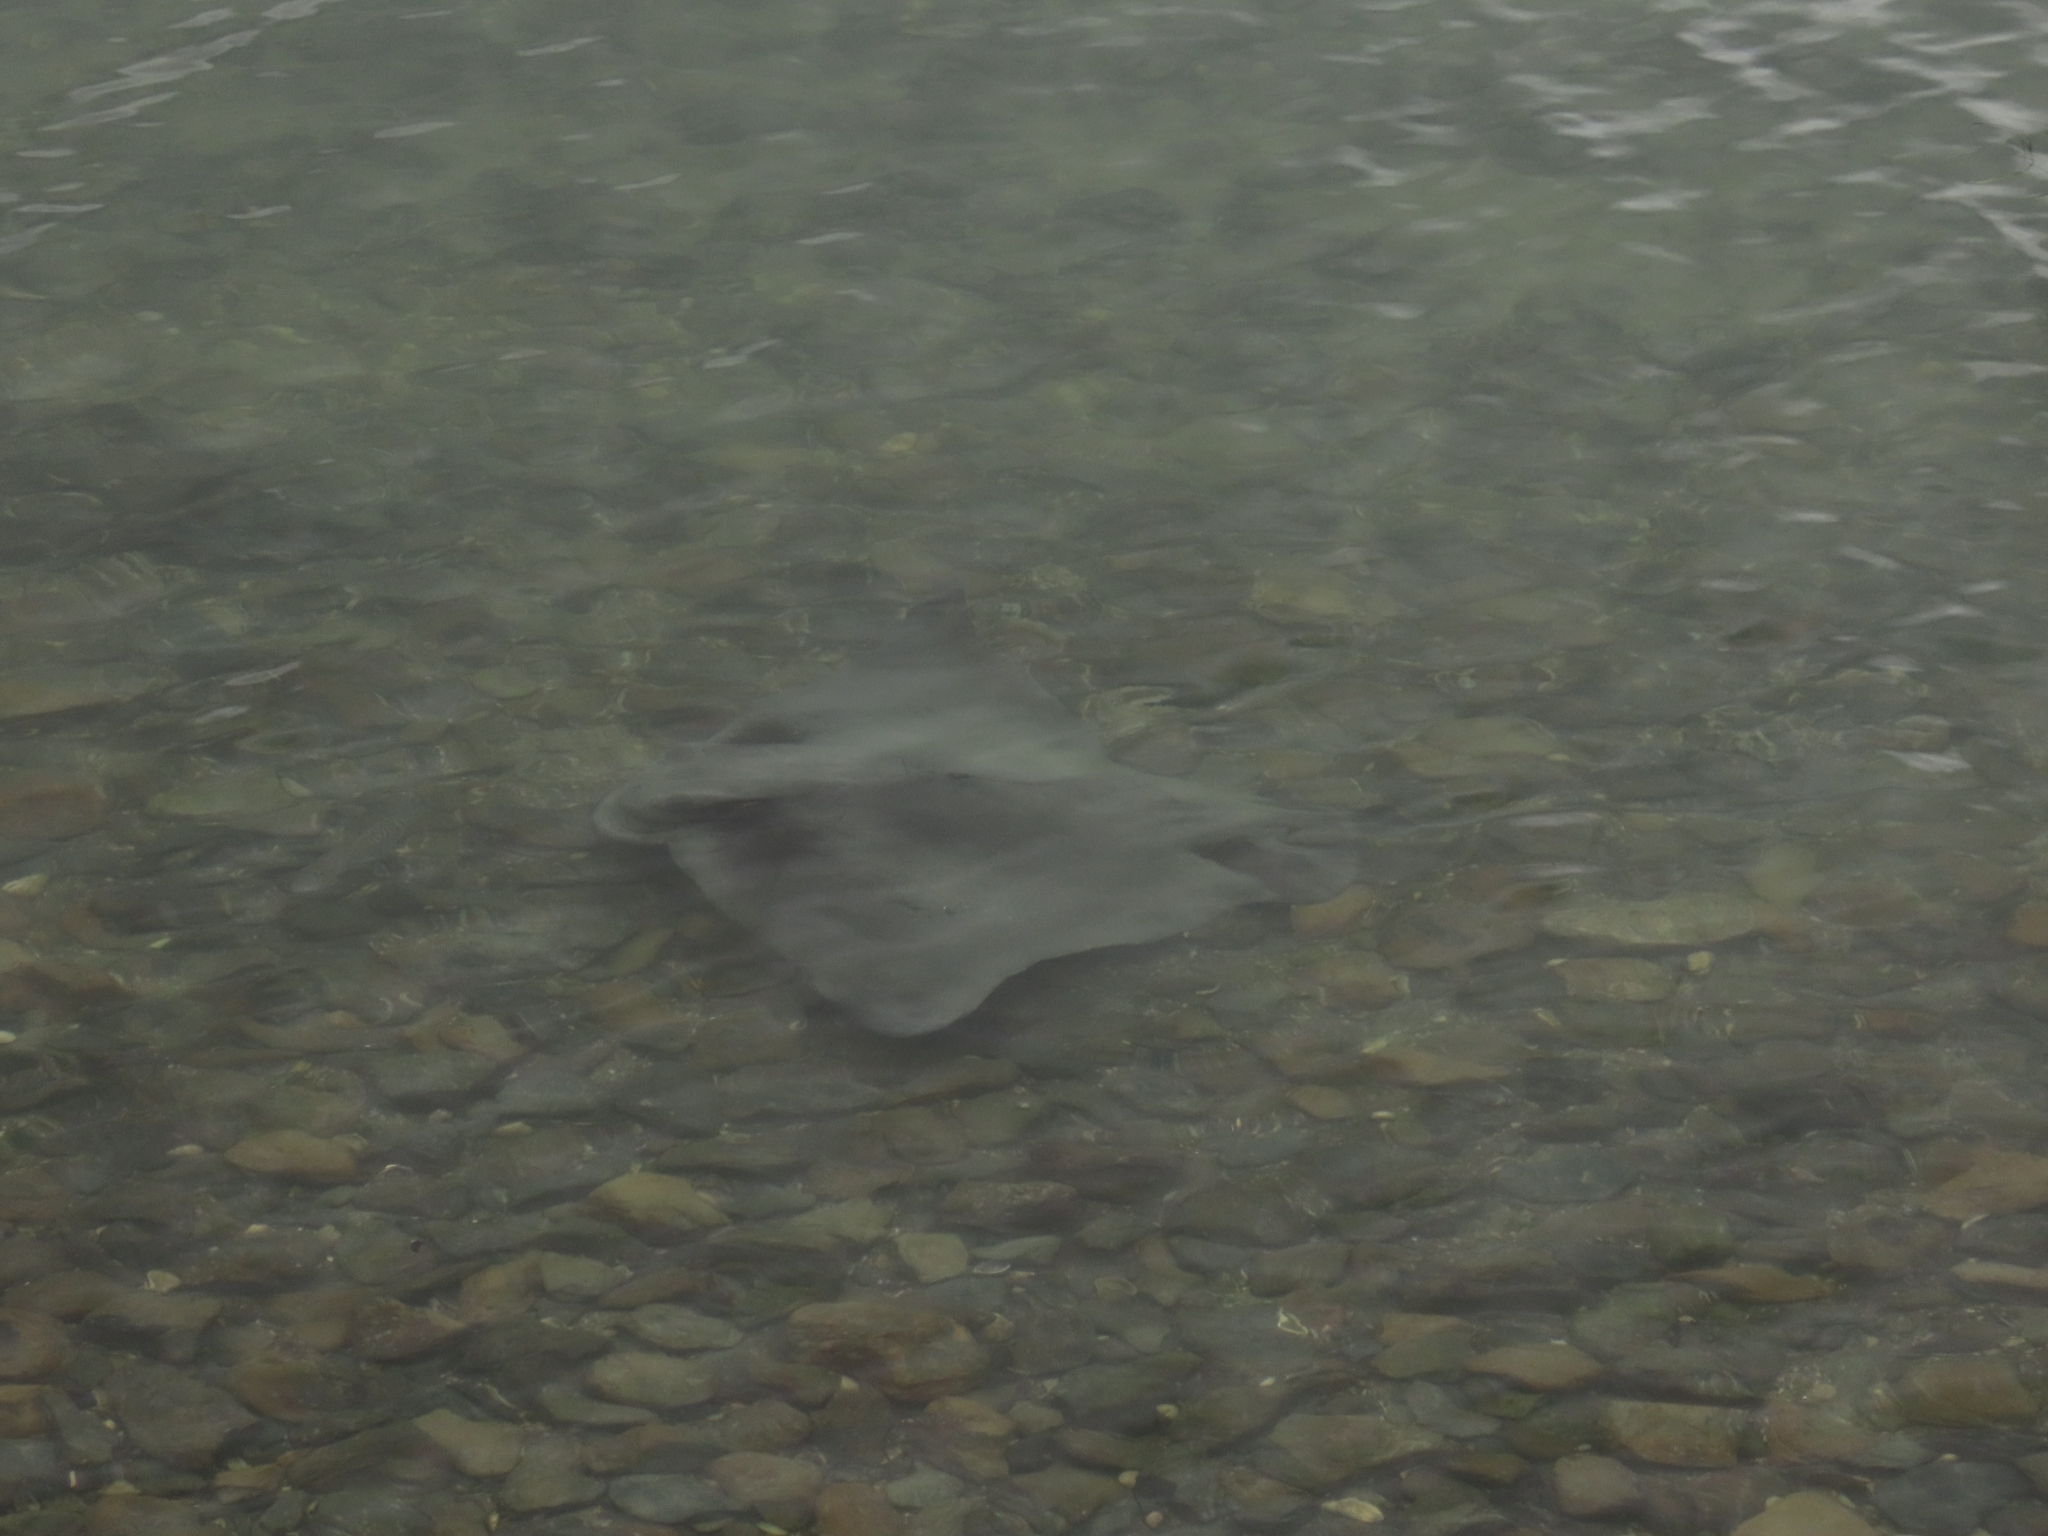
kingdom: Animalia
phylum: Chordata
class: Elasmobranchii
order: Myliobatiformes
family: Myliobatidae
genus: Myliobatis
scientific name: Myliobatis tenuicaudatus
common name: Eagle ray
